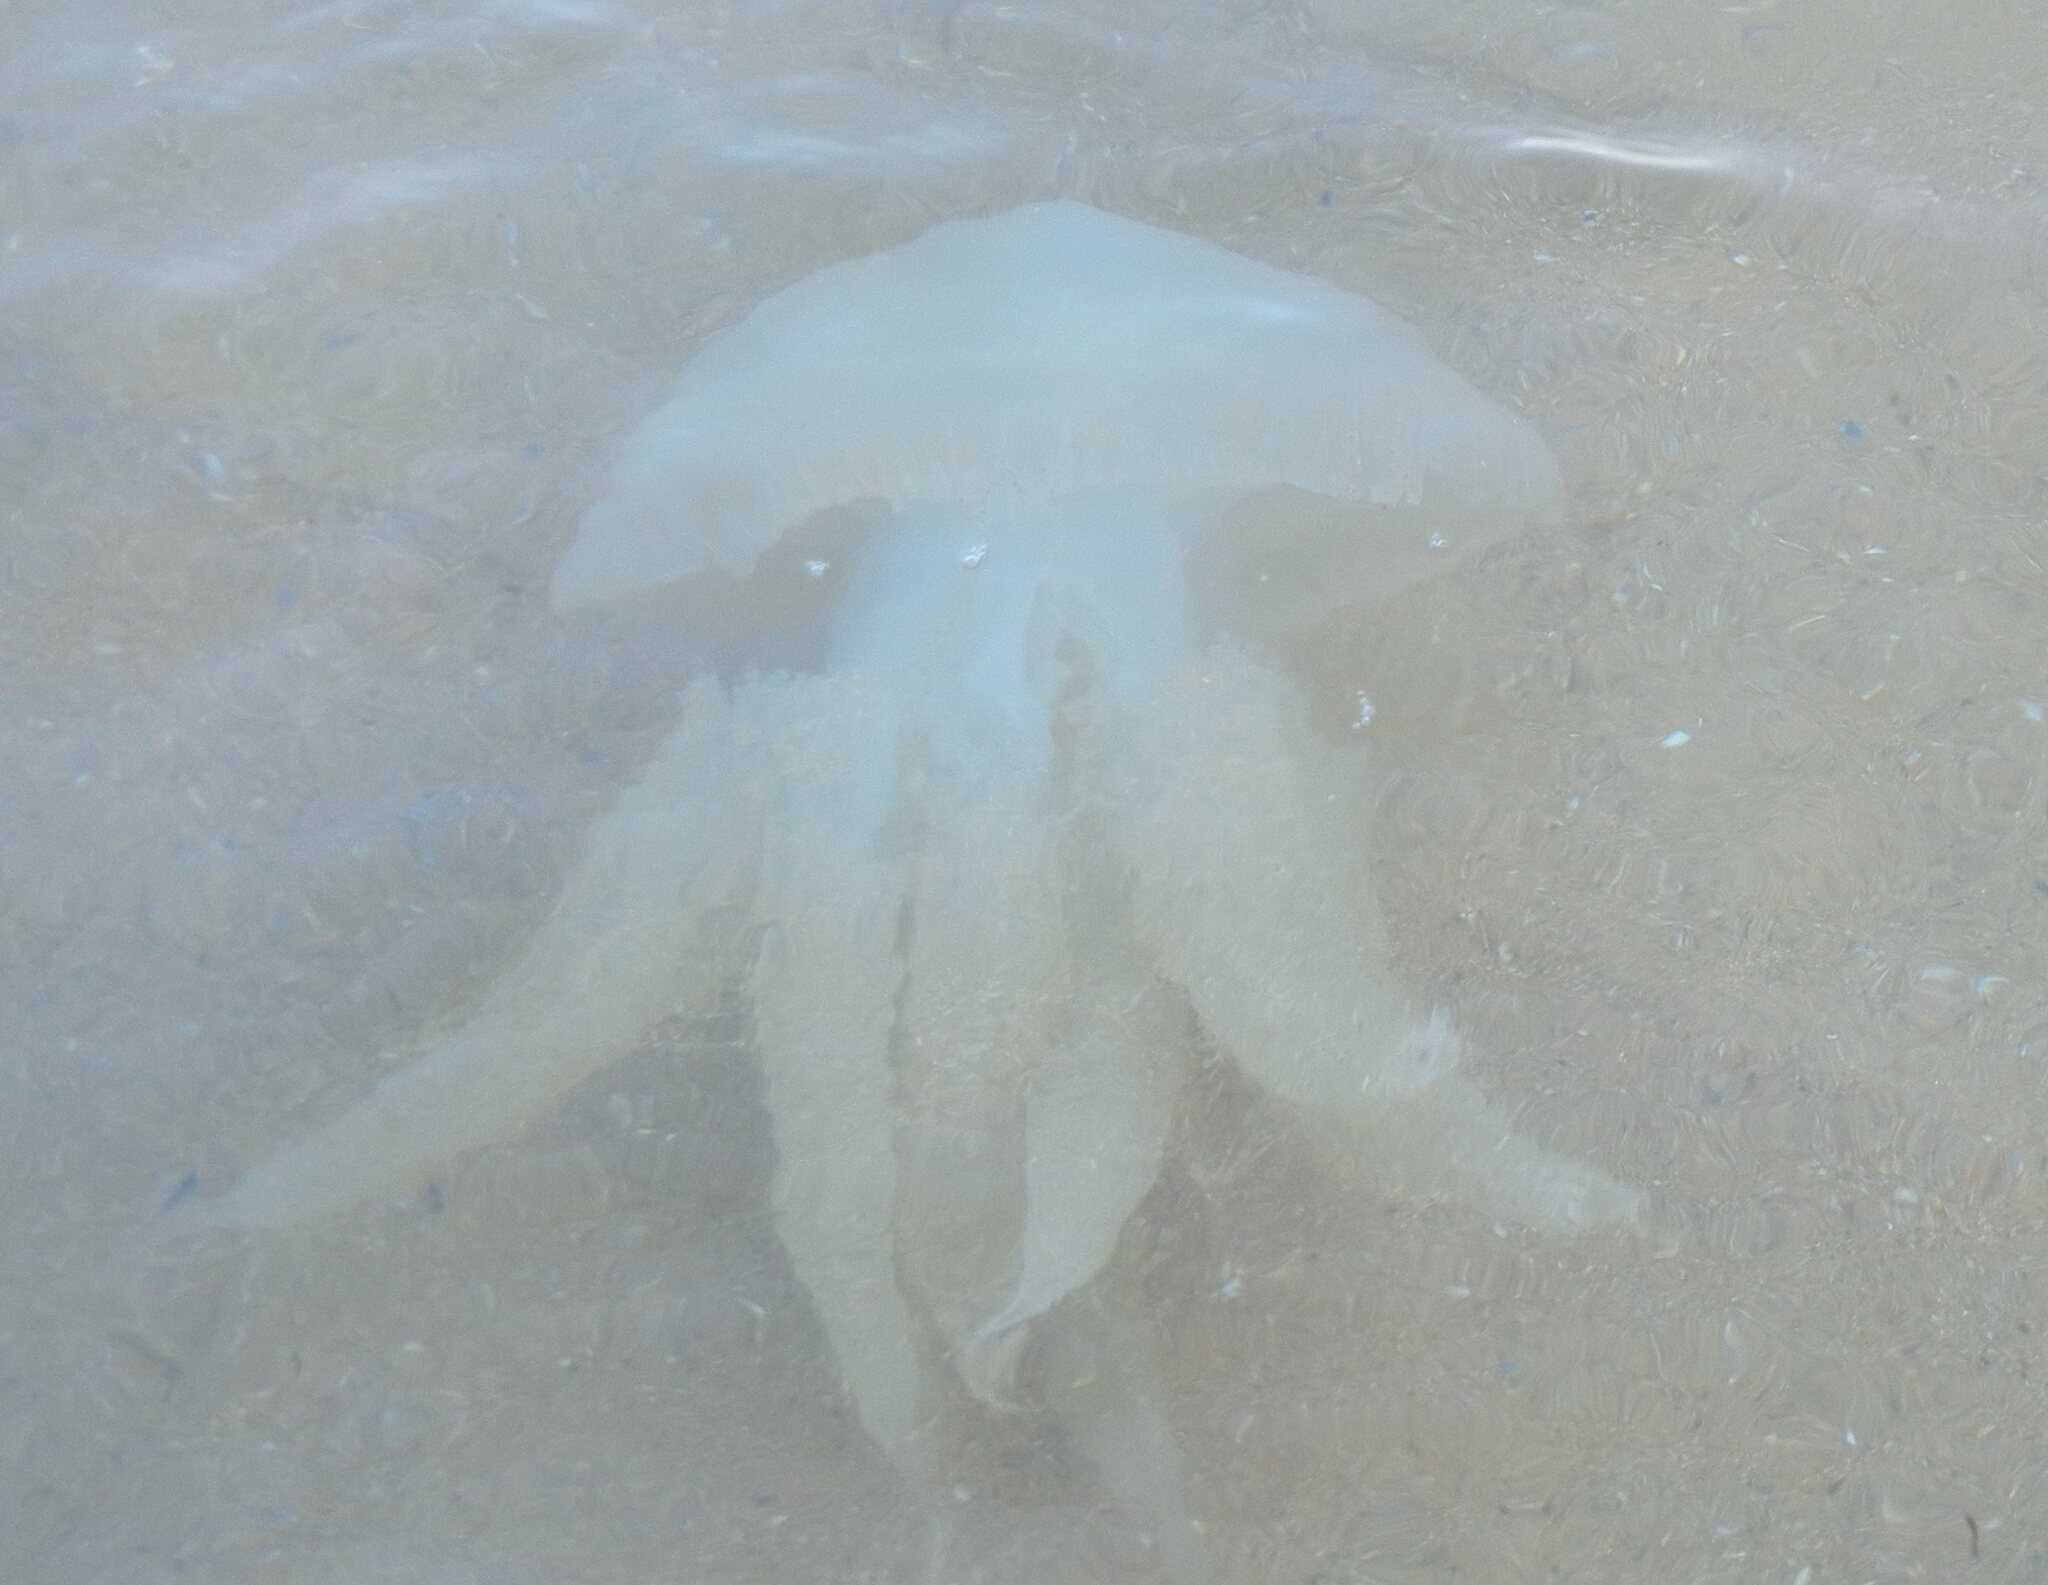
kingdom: Animalia
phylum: Cnidaria
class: Scyphozoa
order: Rhizostomeae
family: Catostylidae
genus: Catostylus
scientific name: Catostylus tagi
